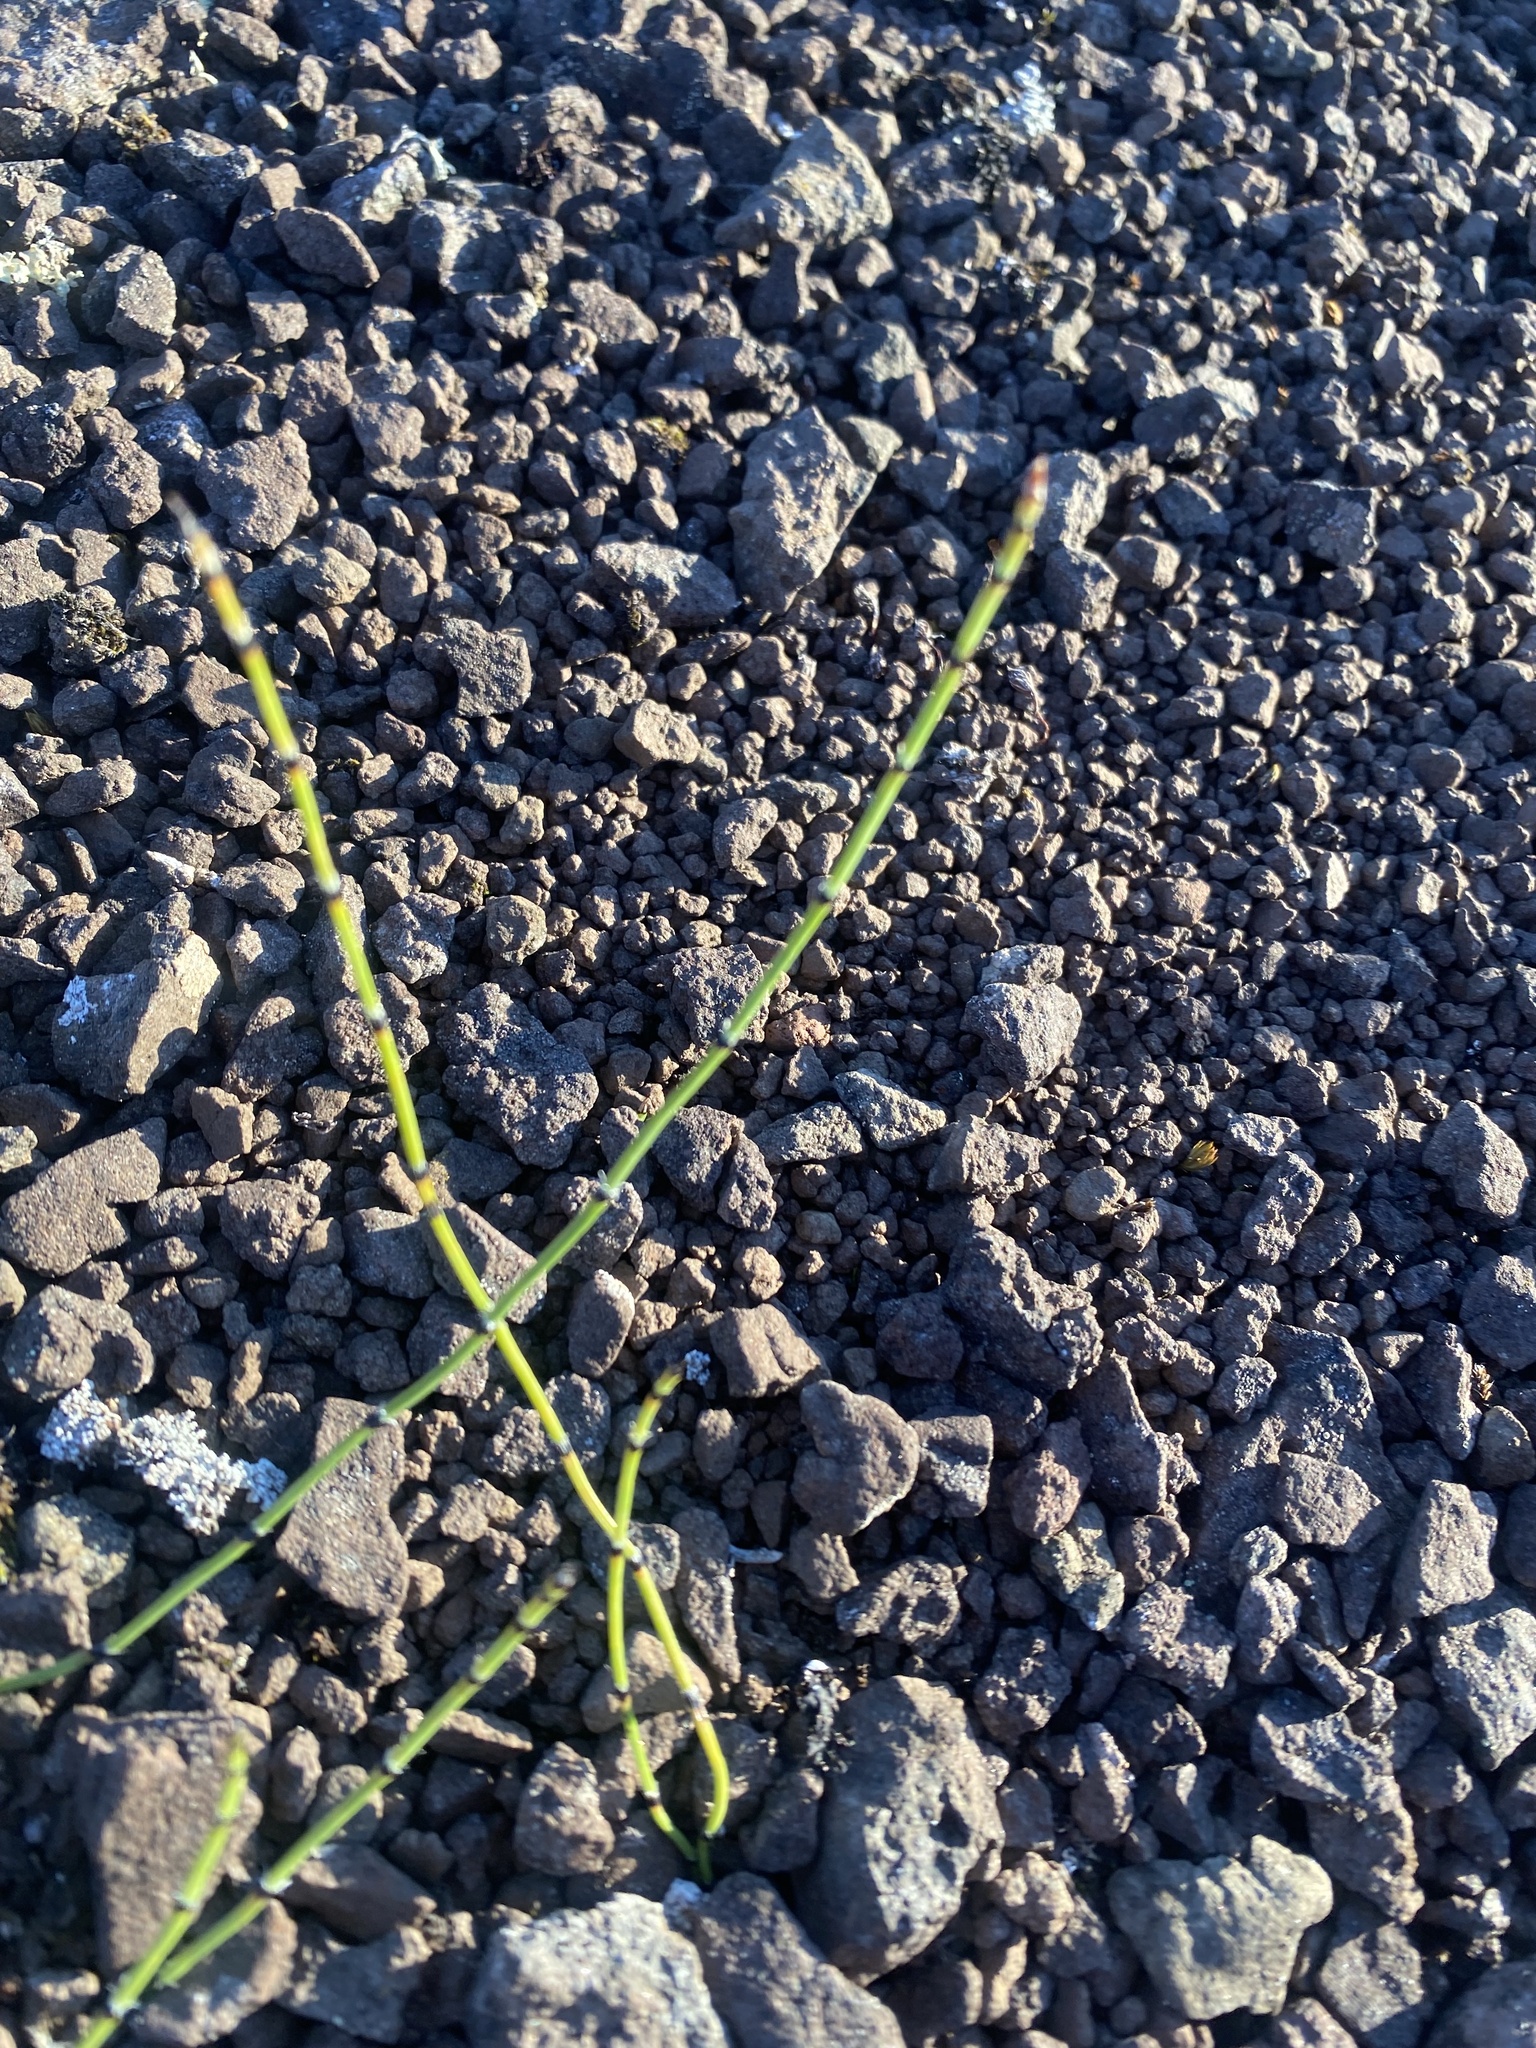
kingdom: Plantae
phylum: Tracheophyta
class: Polypodiopsida
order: Equisetales
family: Equisetaceae
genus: Equisetum
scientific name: Equisetum variegatum
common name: Variegated horsetail
